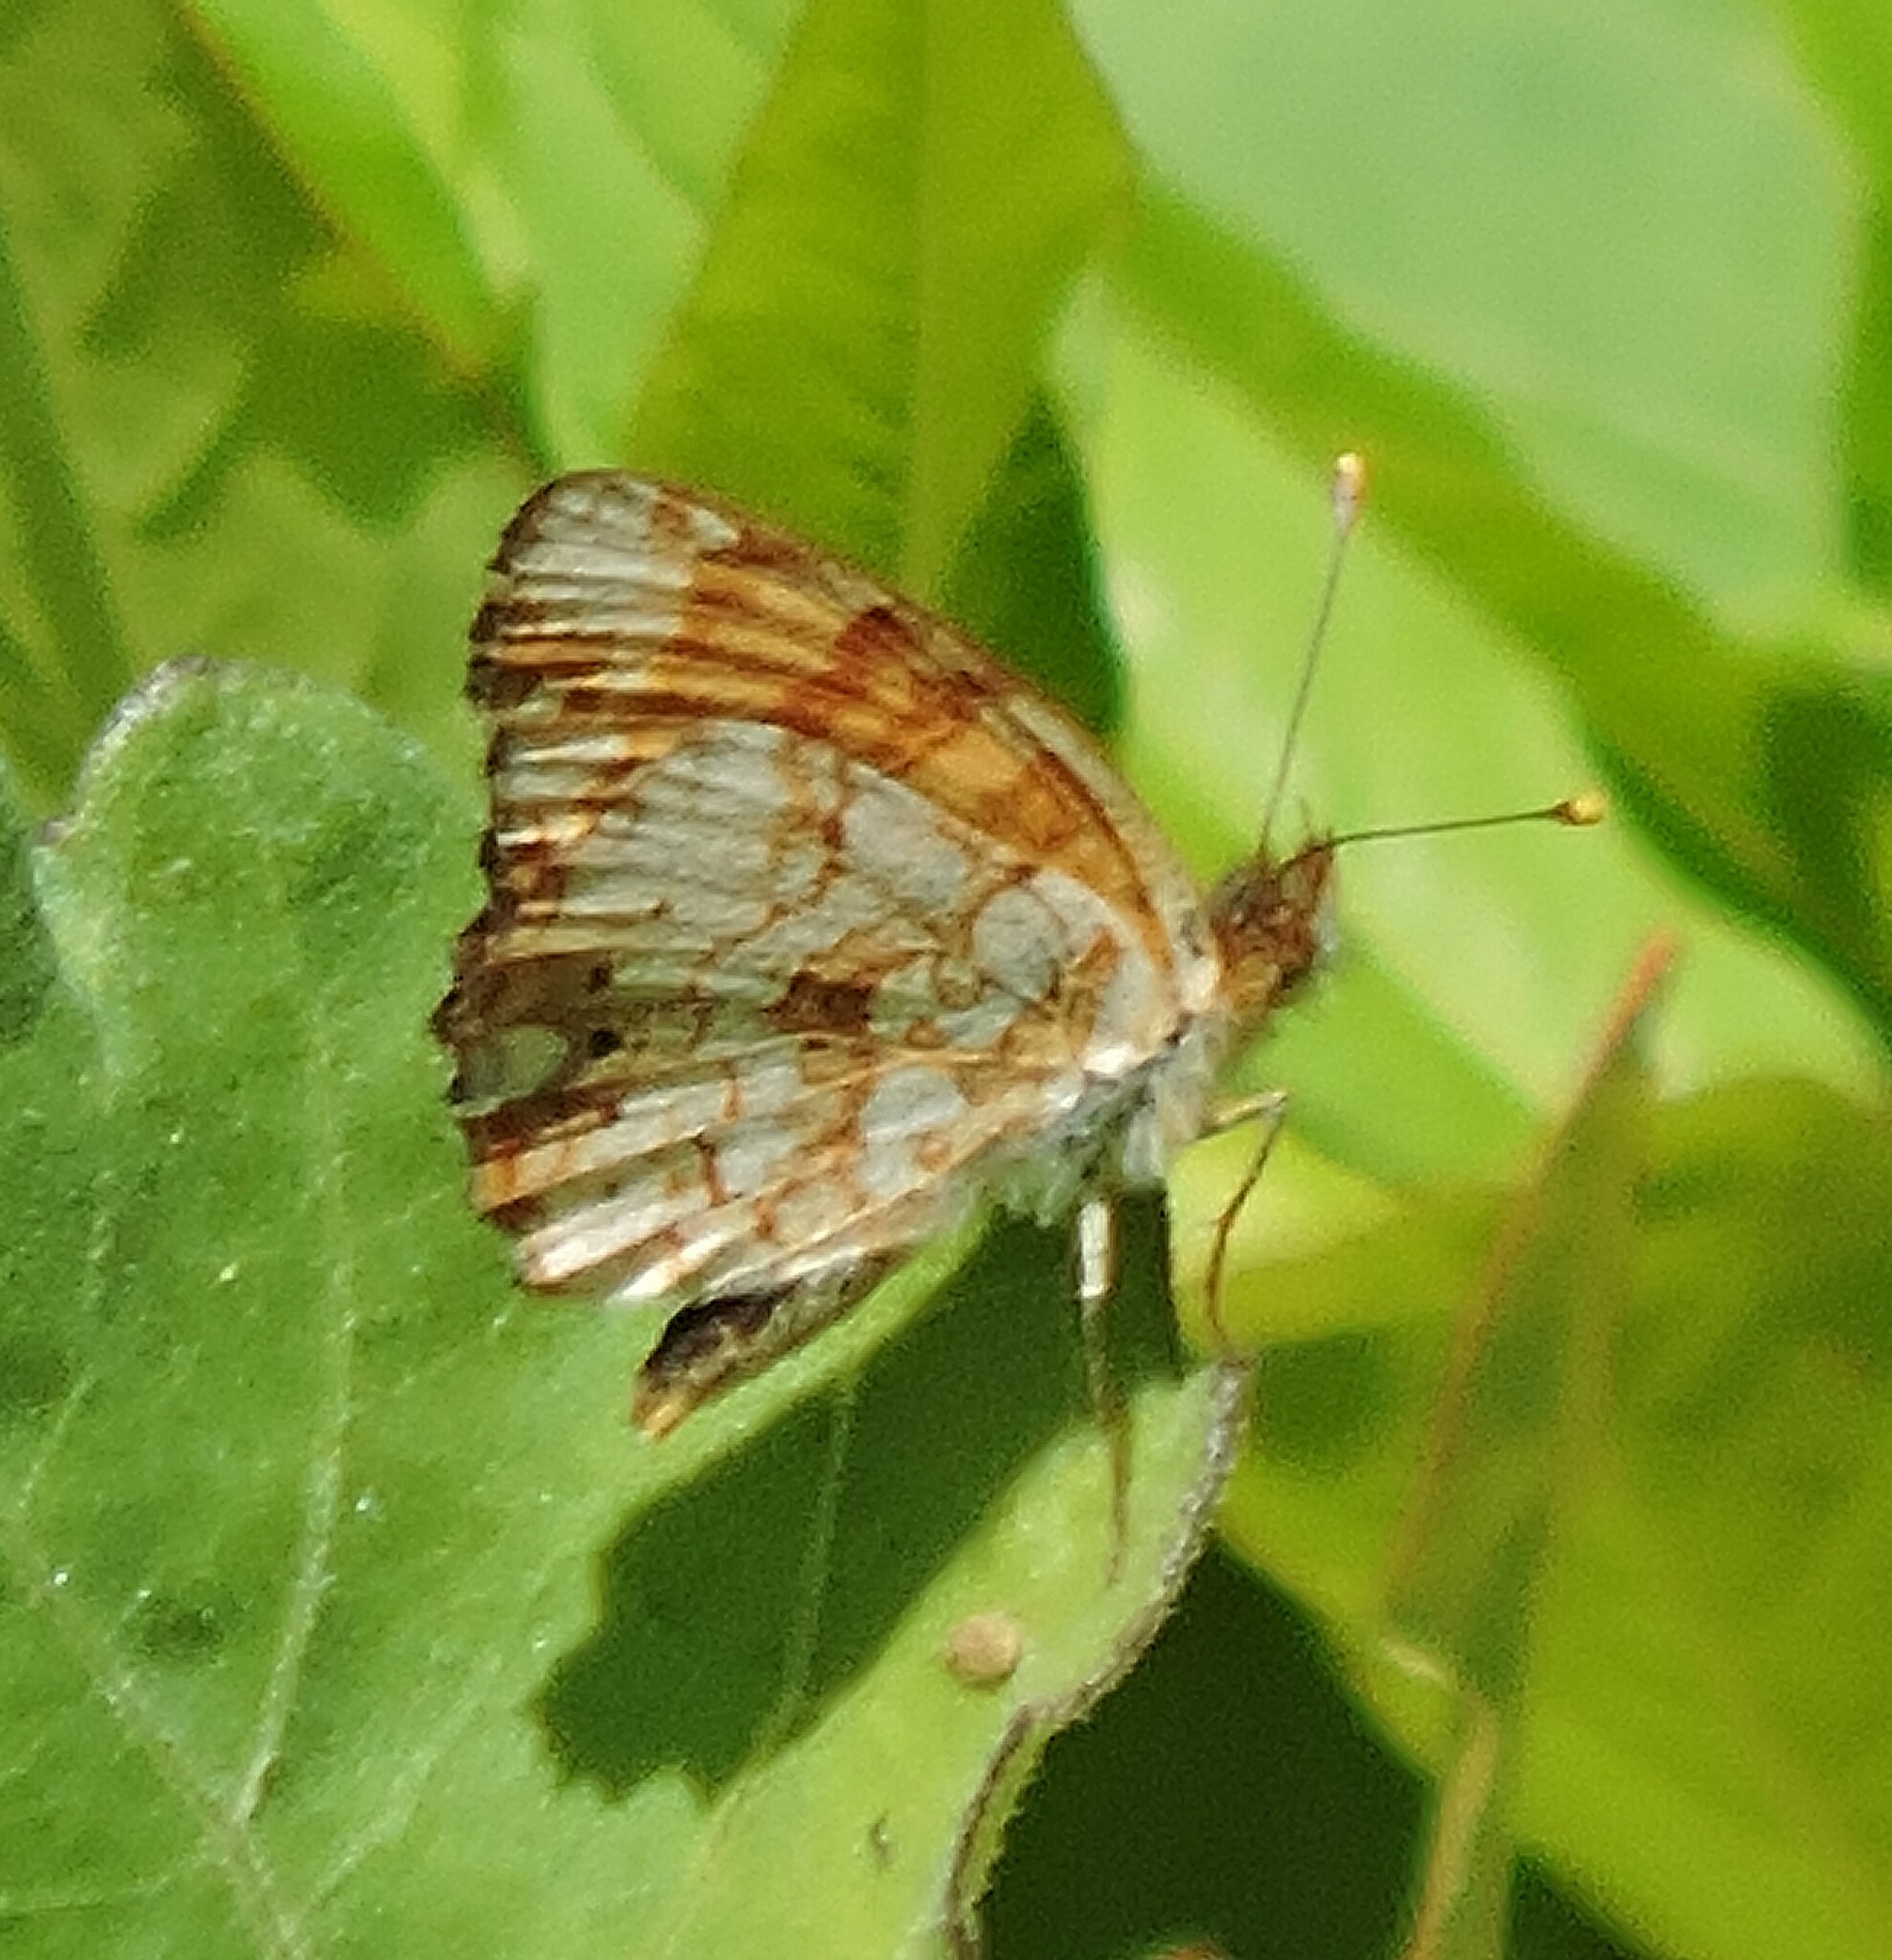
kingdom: Animalia
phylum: Arthropoda
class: Insecta
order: Lepidoptera
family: Nymphalidae
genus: Eresia
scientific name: Eresia aveyrona
